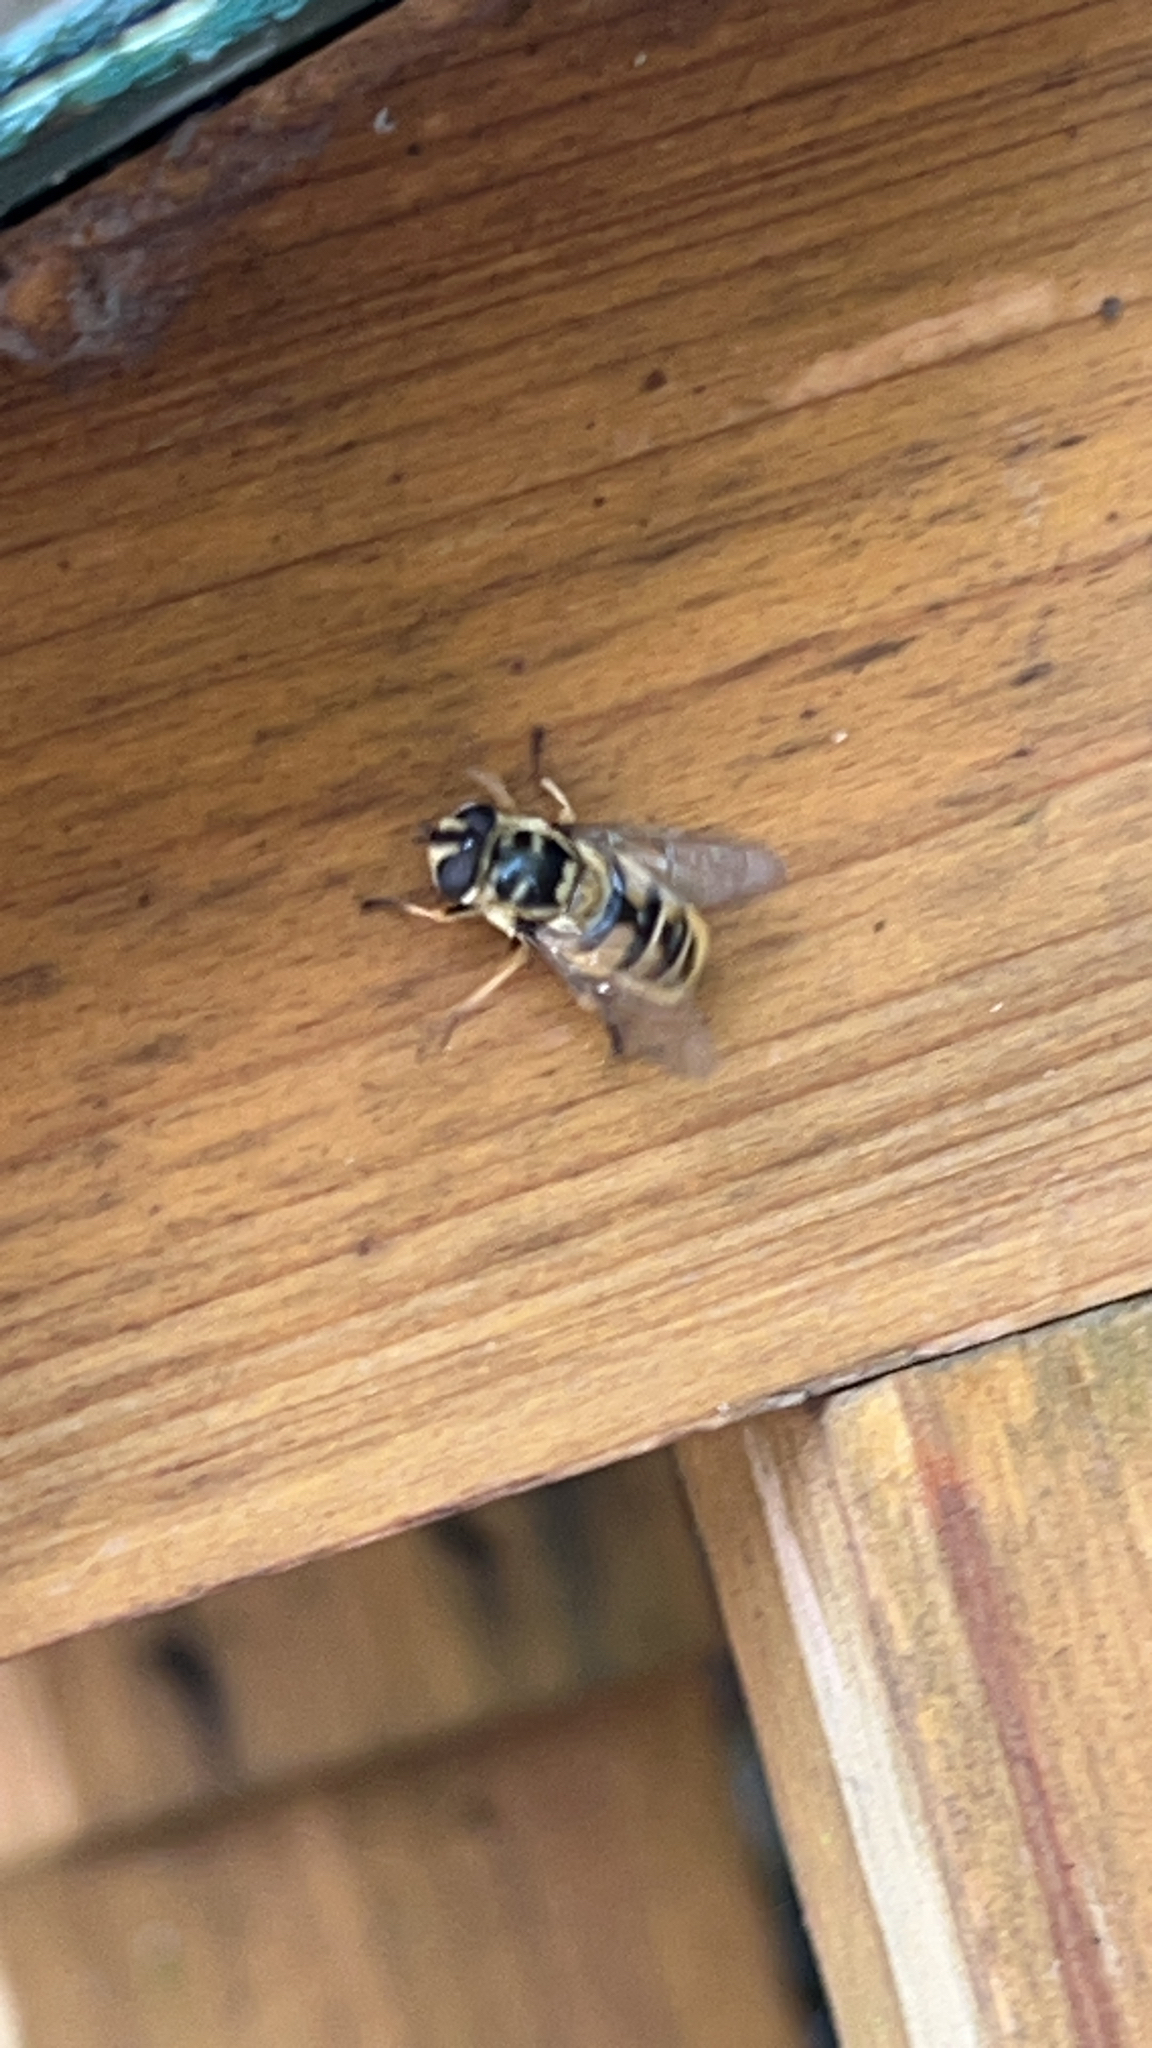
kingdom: Animalia
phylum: Arthropoda
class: Insecta
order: Diptera
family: Syrphidae
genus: Myathropa
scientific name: Myathropa florea
